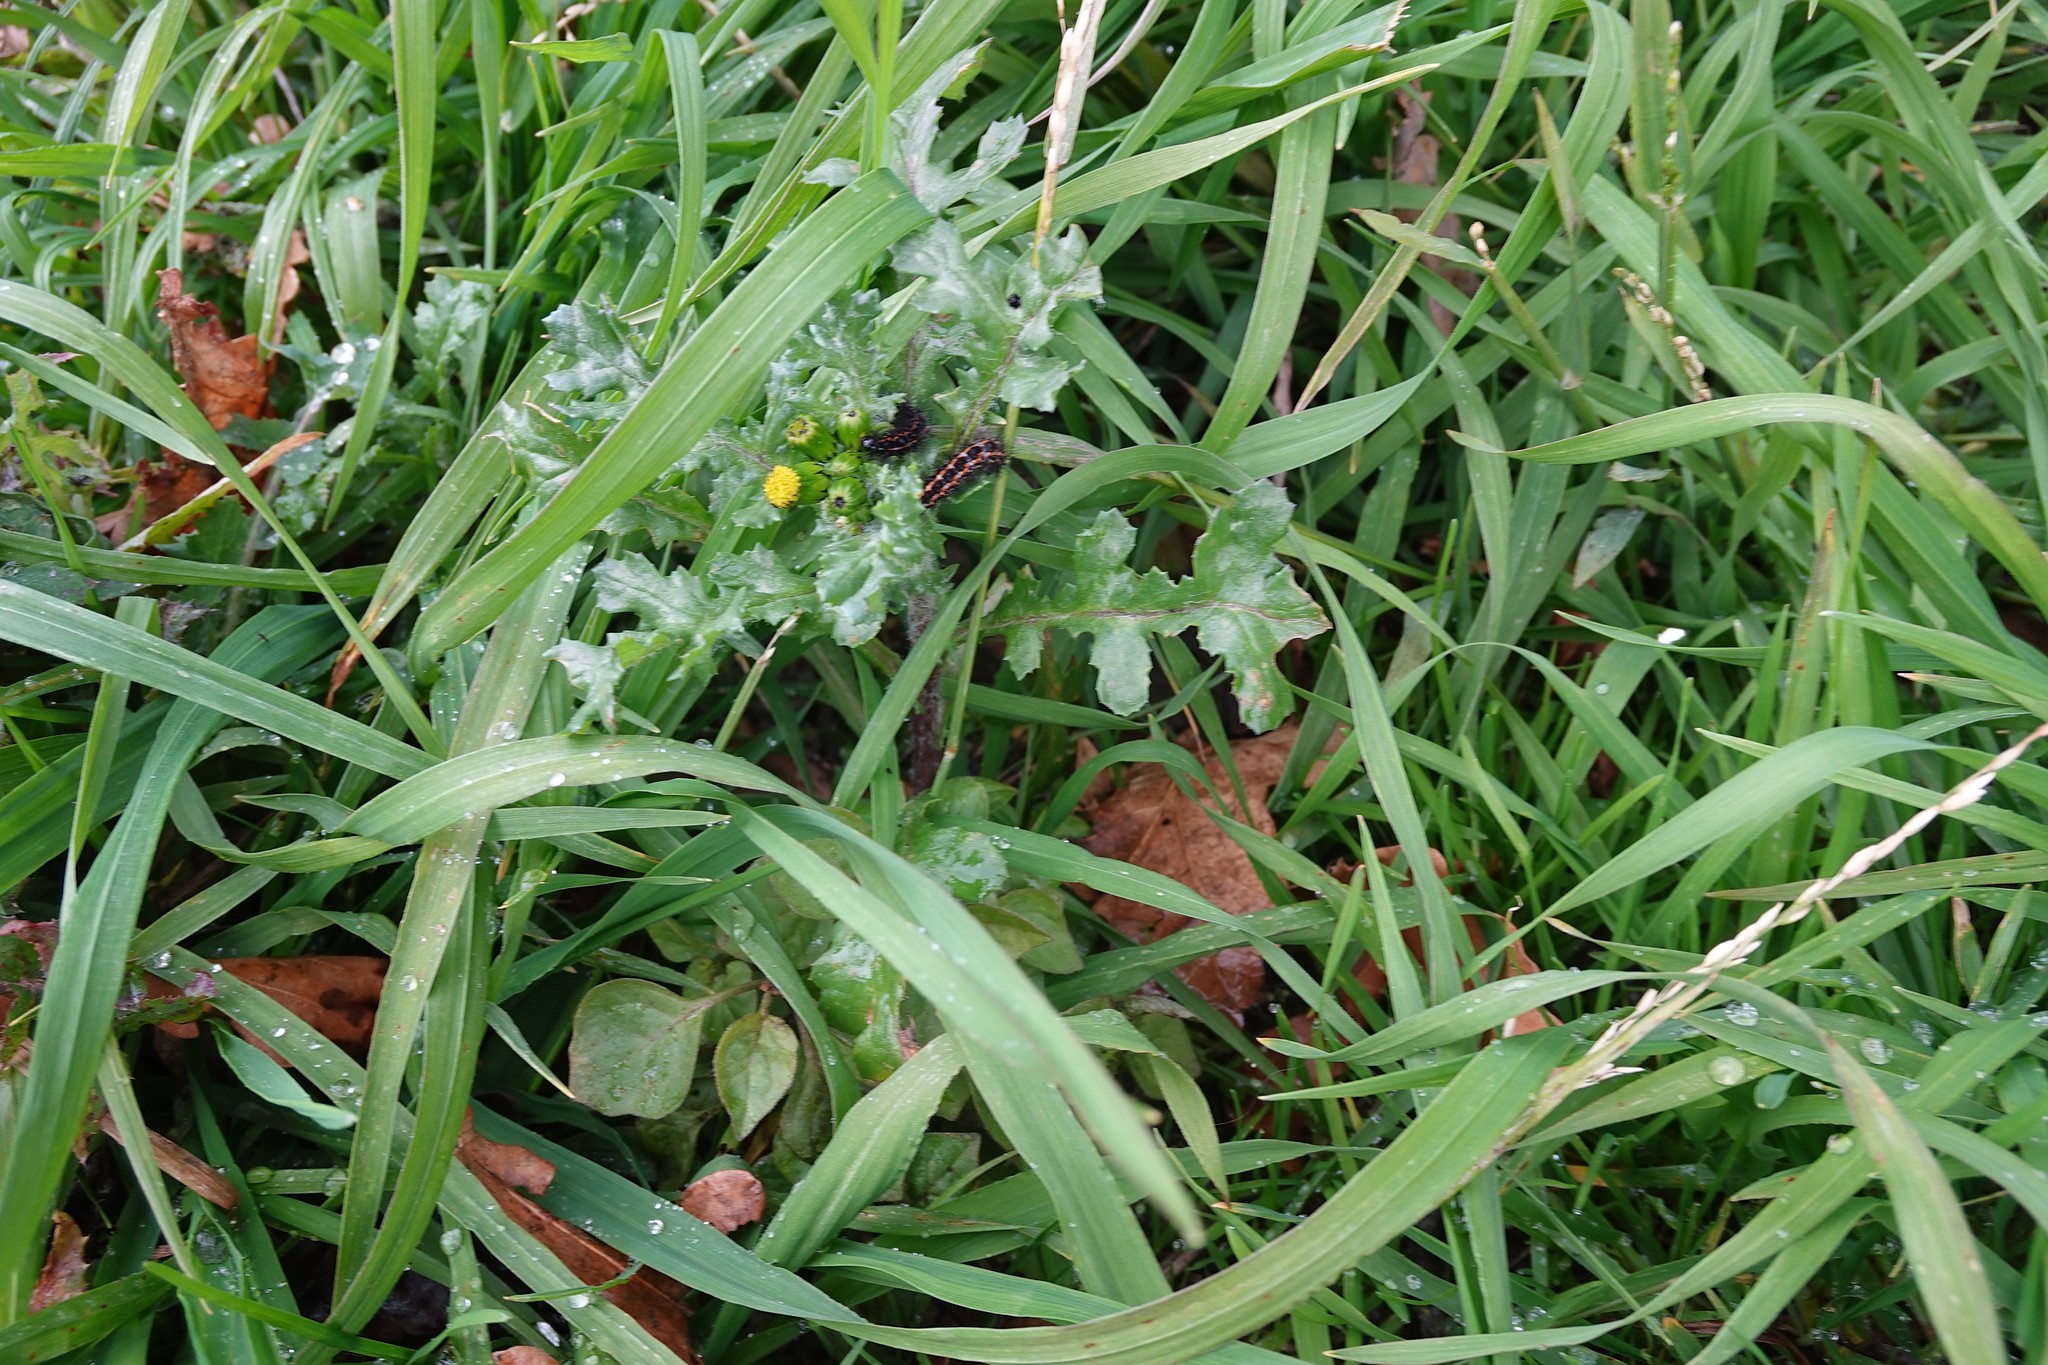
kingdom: Animalia
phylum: Arthropoda
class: Insecta
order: Lepidoptera
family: Erebidae
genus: Nyctemera
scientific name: Nyctemera annulatum
